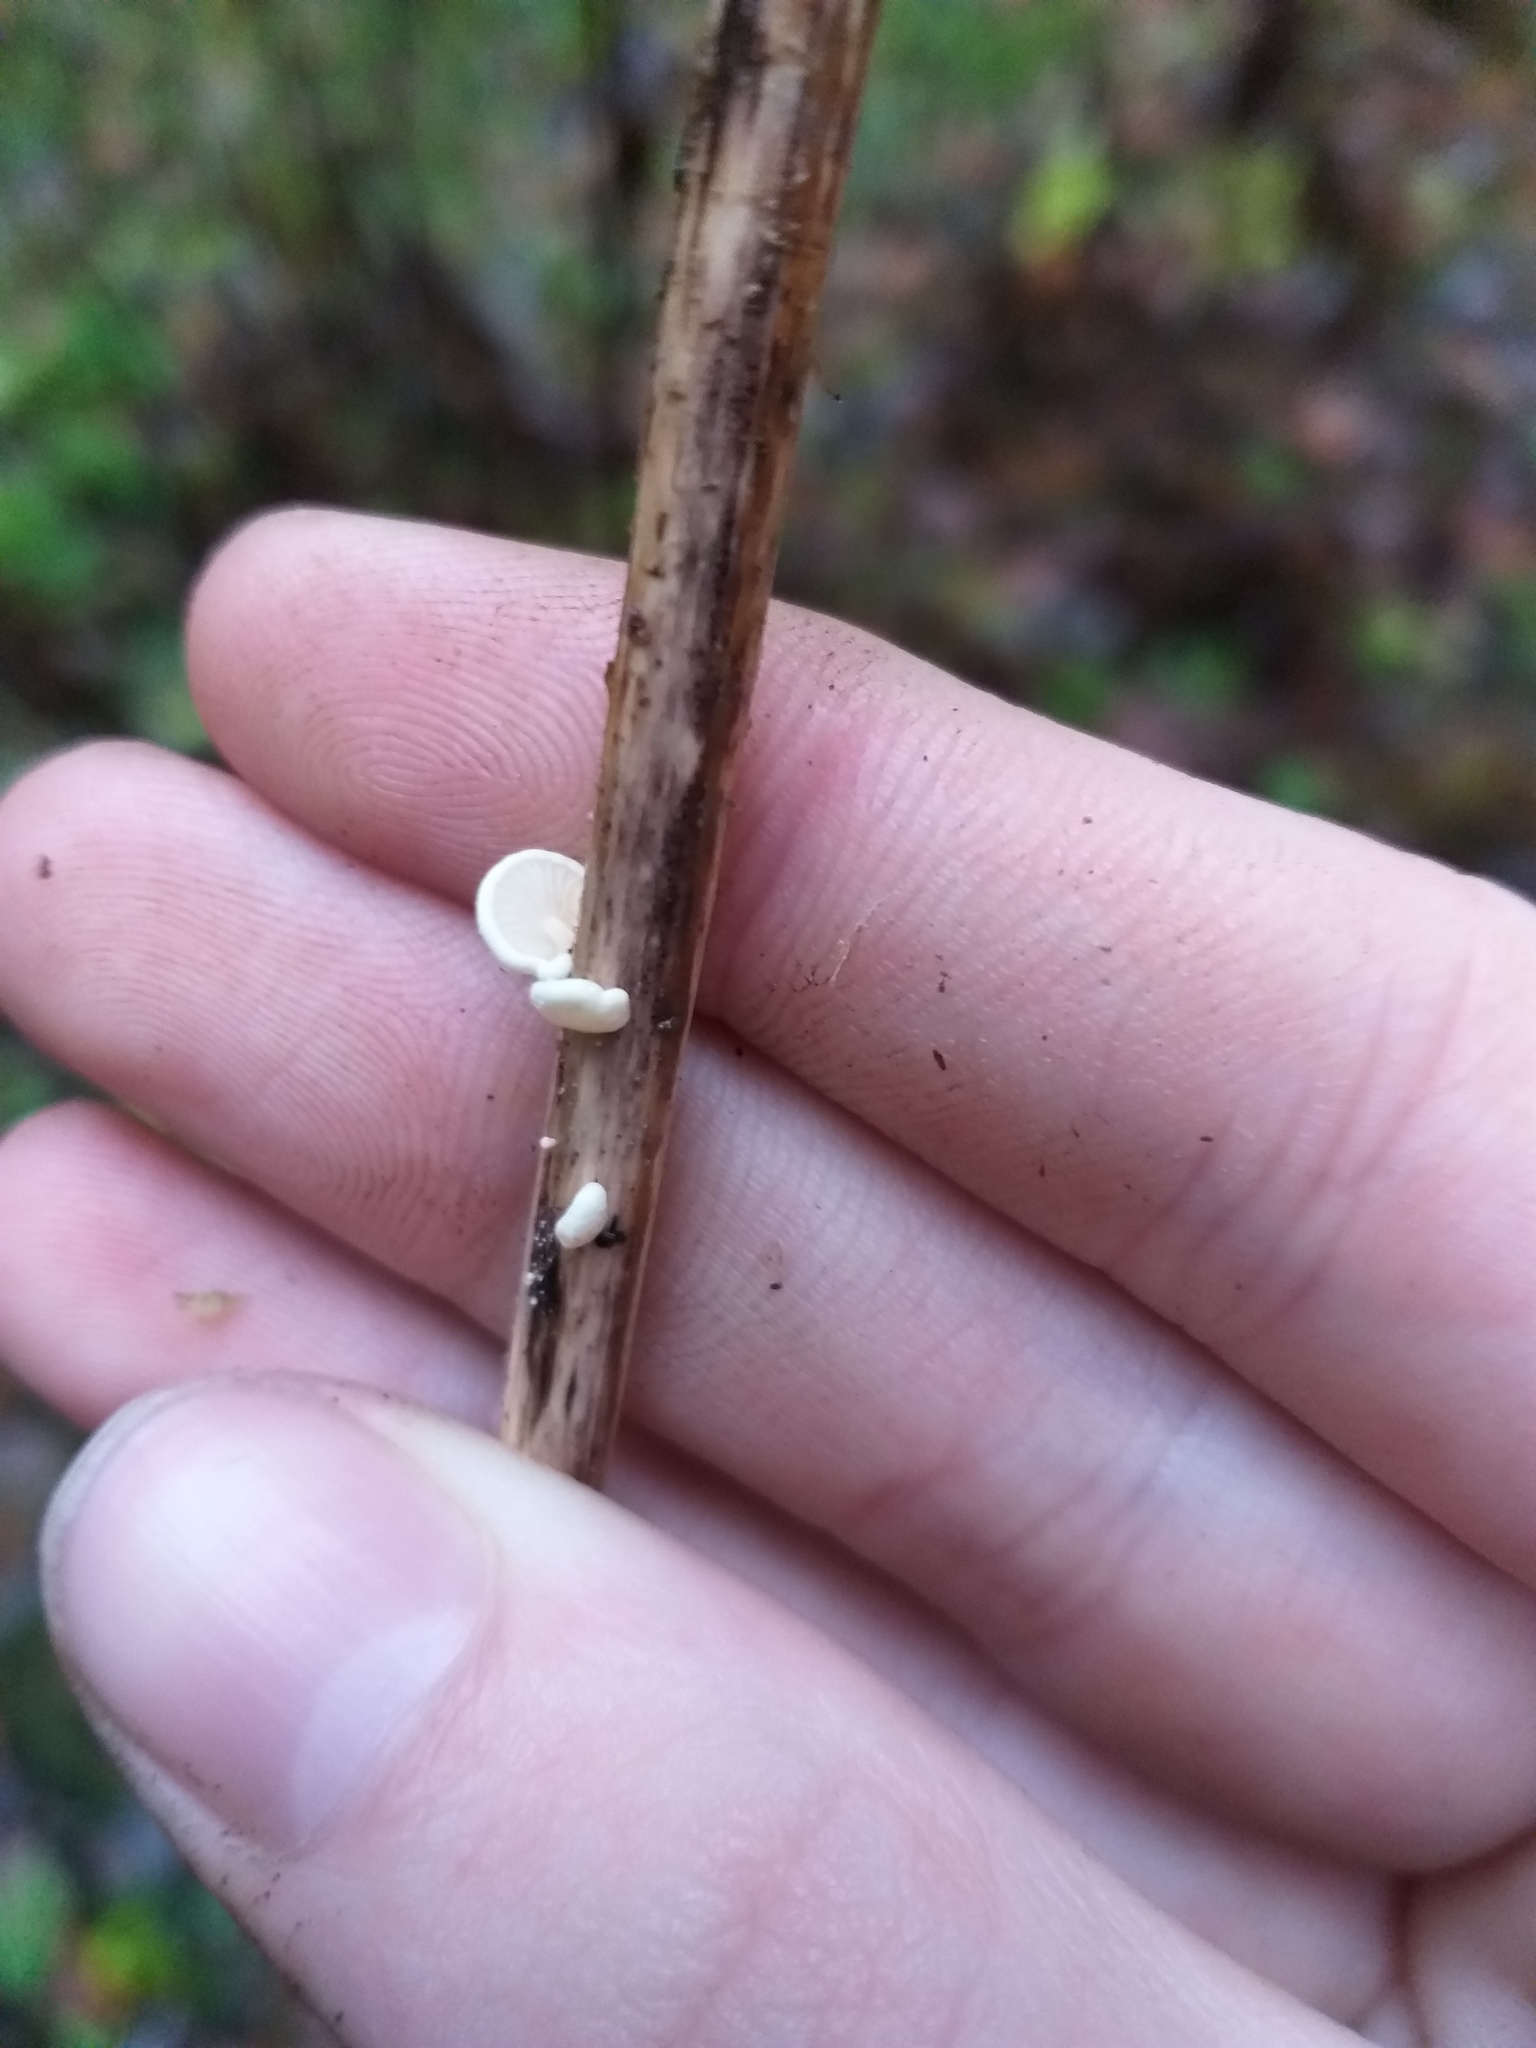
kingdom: Fungi
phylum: Basidiomycota
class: Agaricomycetes
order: Agaricales
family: Crepidotaceae
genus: Crepidotus
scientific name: Crepidotus epibryus
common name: Grass oysterling
